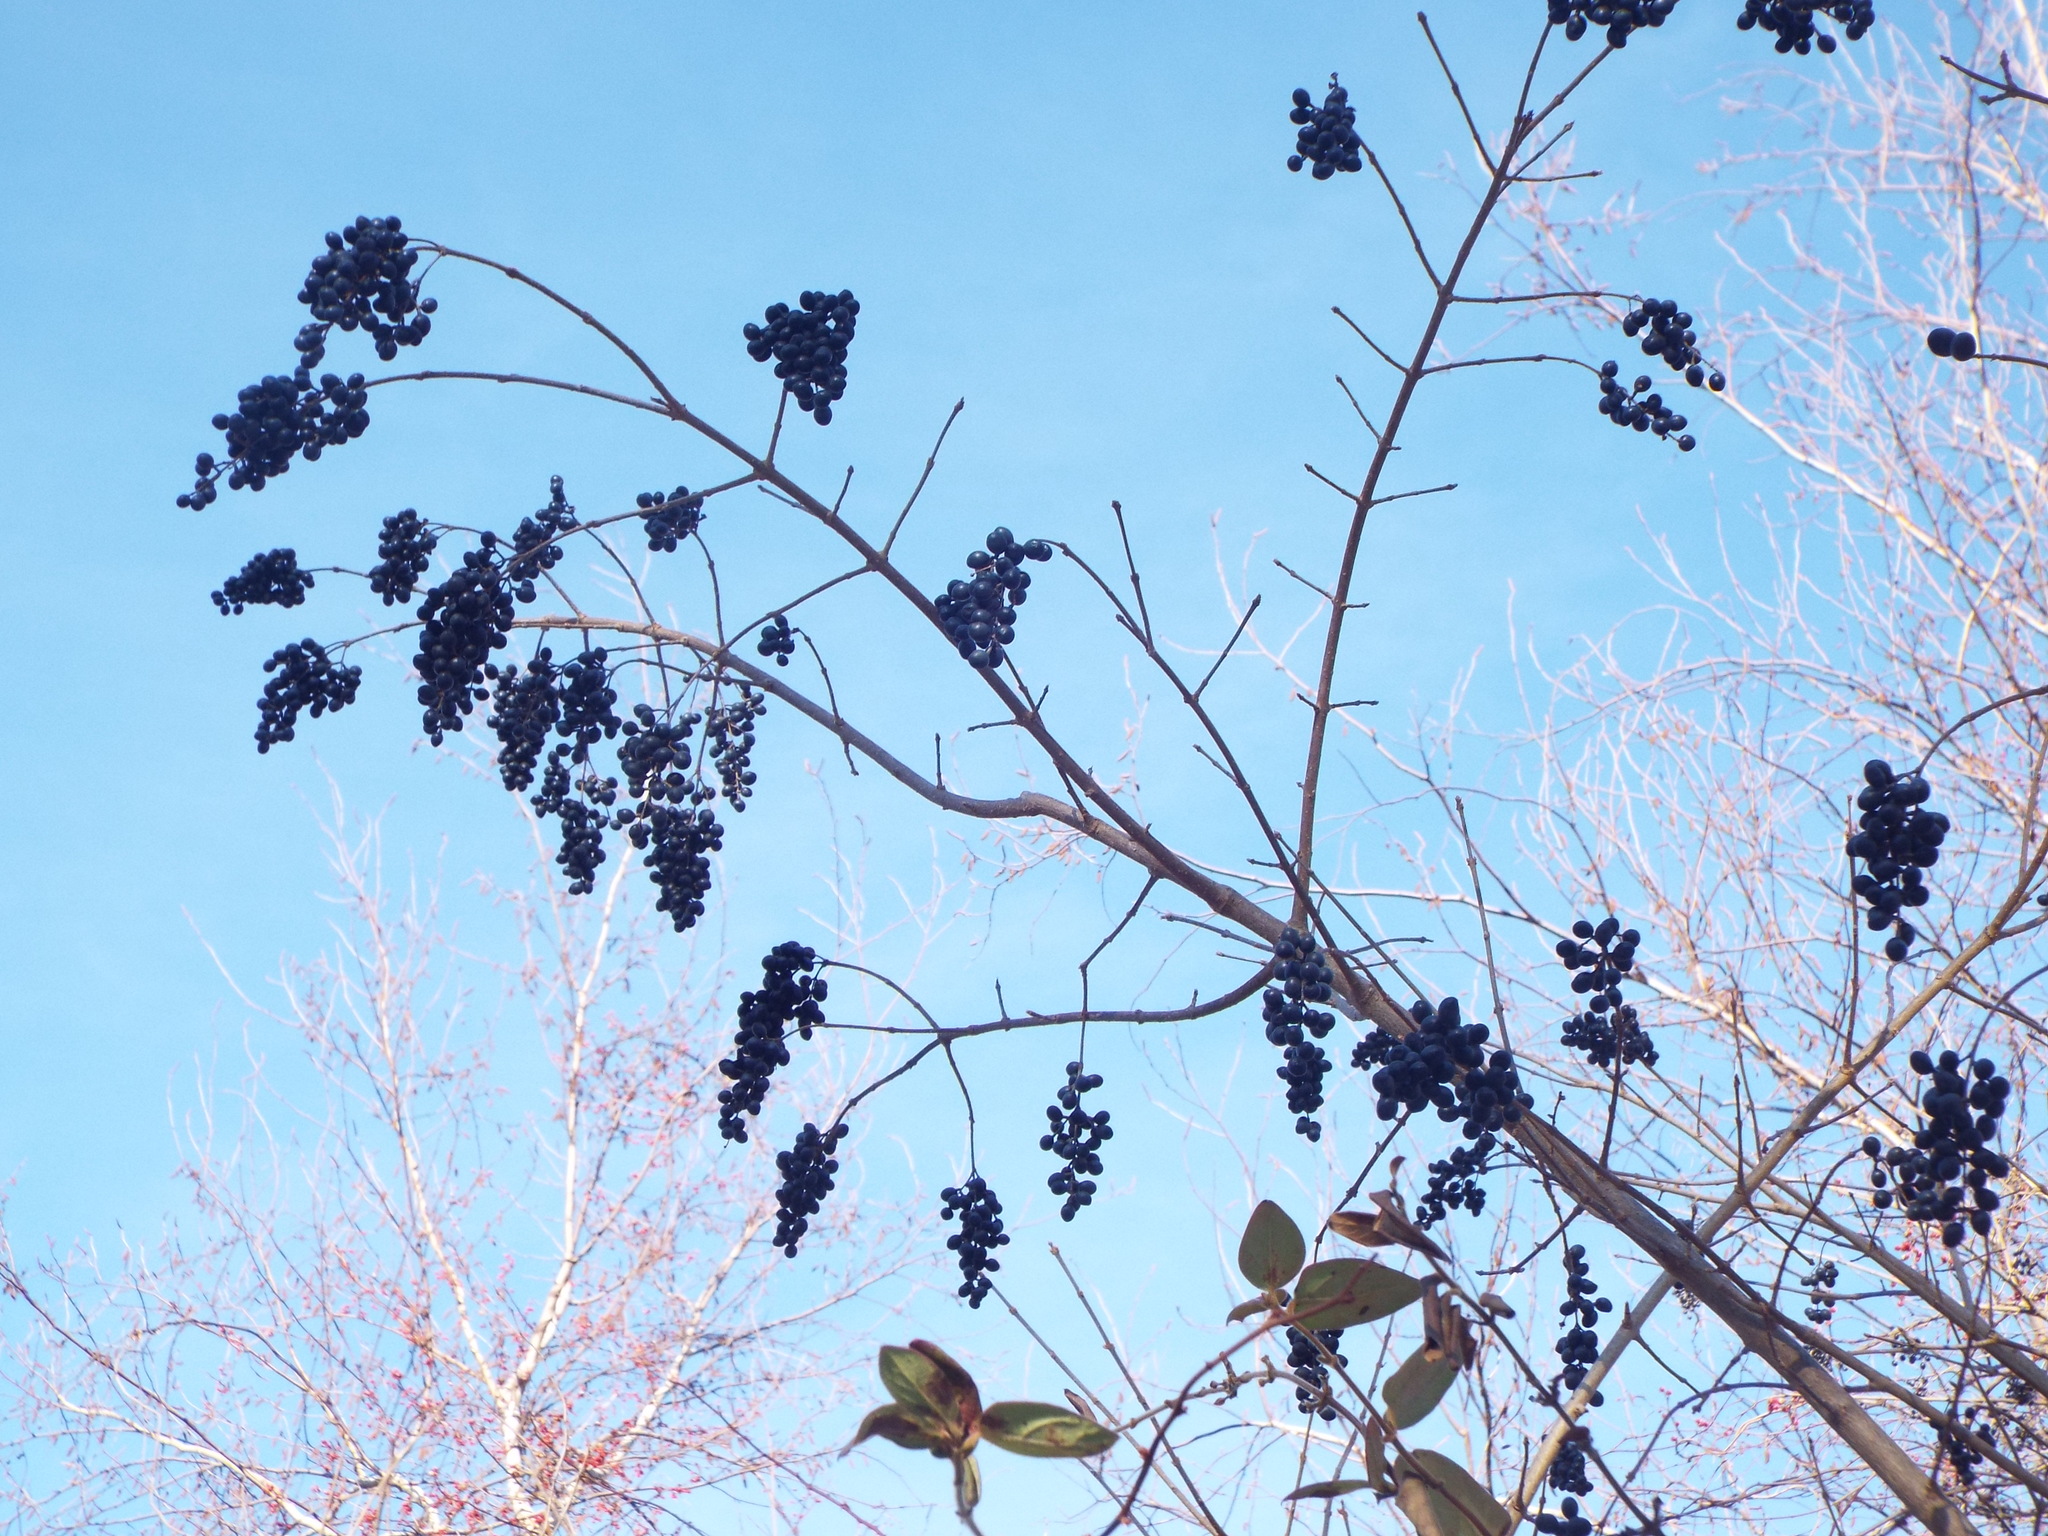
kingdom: Plantae
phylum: Tracheophyta
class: Magnoliopsida
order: Lamiales
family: Oleaceae
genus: Ligustrum
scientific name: Ligustrum ovalifolium
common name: California privet
